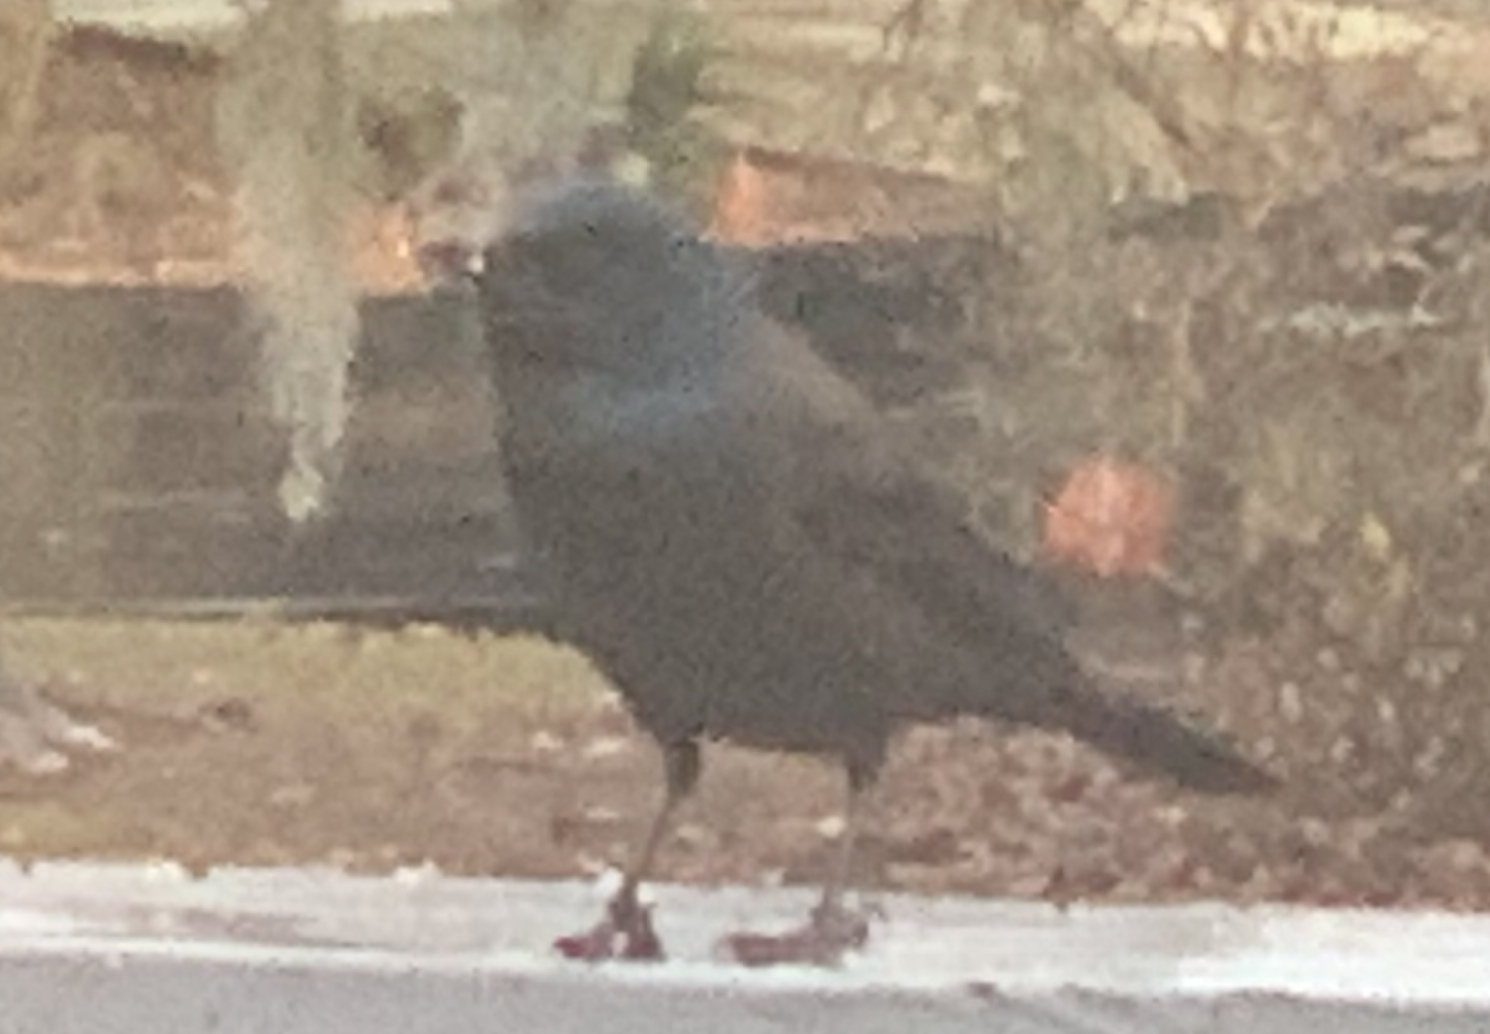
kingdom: Animalia
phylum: Chordata
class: Aves
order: Passeriformes
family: Icteridae
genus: Quiscalus
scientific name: Quiscalus quiscula
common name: Common grackle
